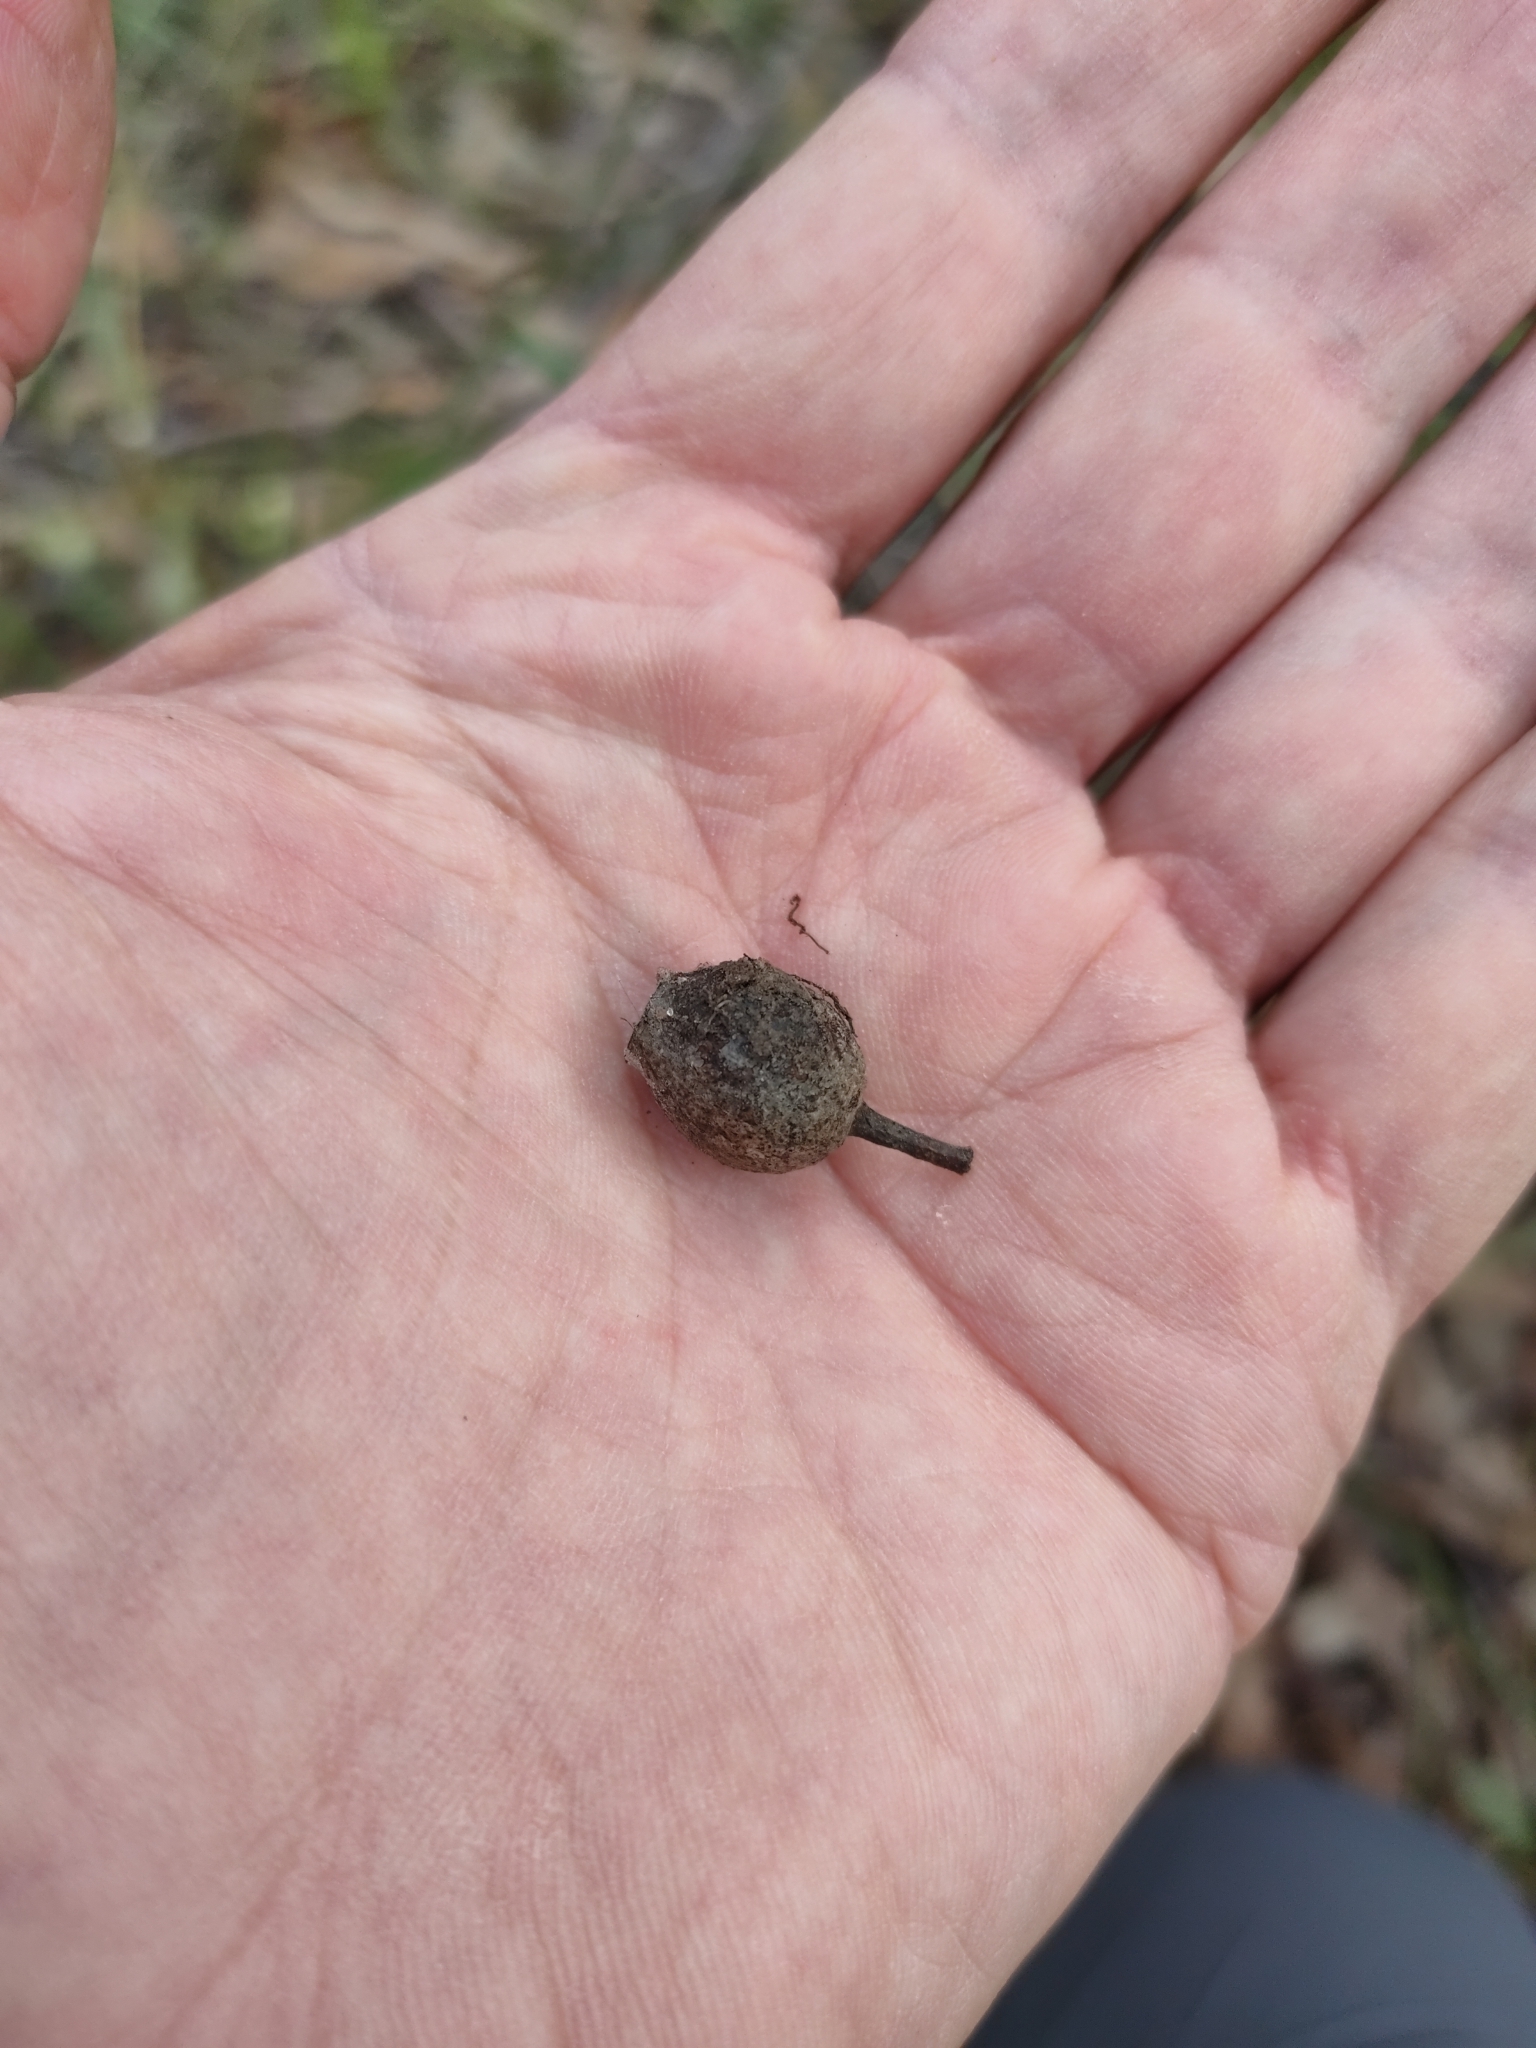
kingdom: Plantae
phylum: Tracheophyta
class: Magnoliopsida
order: Myrtales
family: Myrtaceae
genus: Corymbia
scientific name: Corymbia intermedia
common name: Pink-bloodwood
